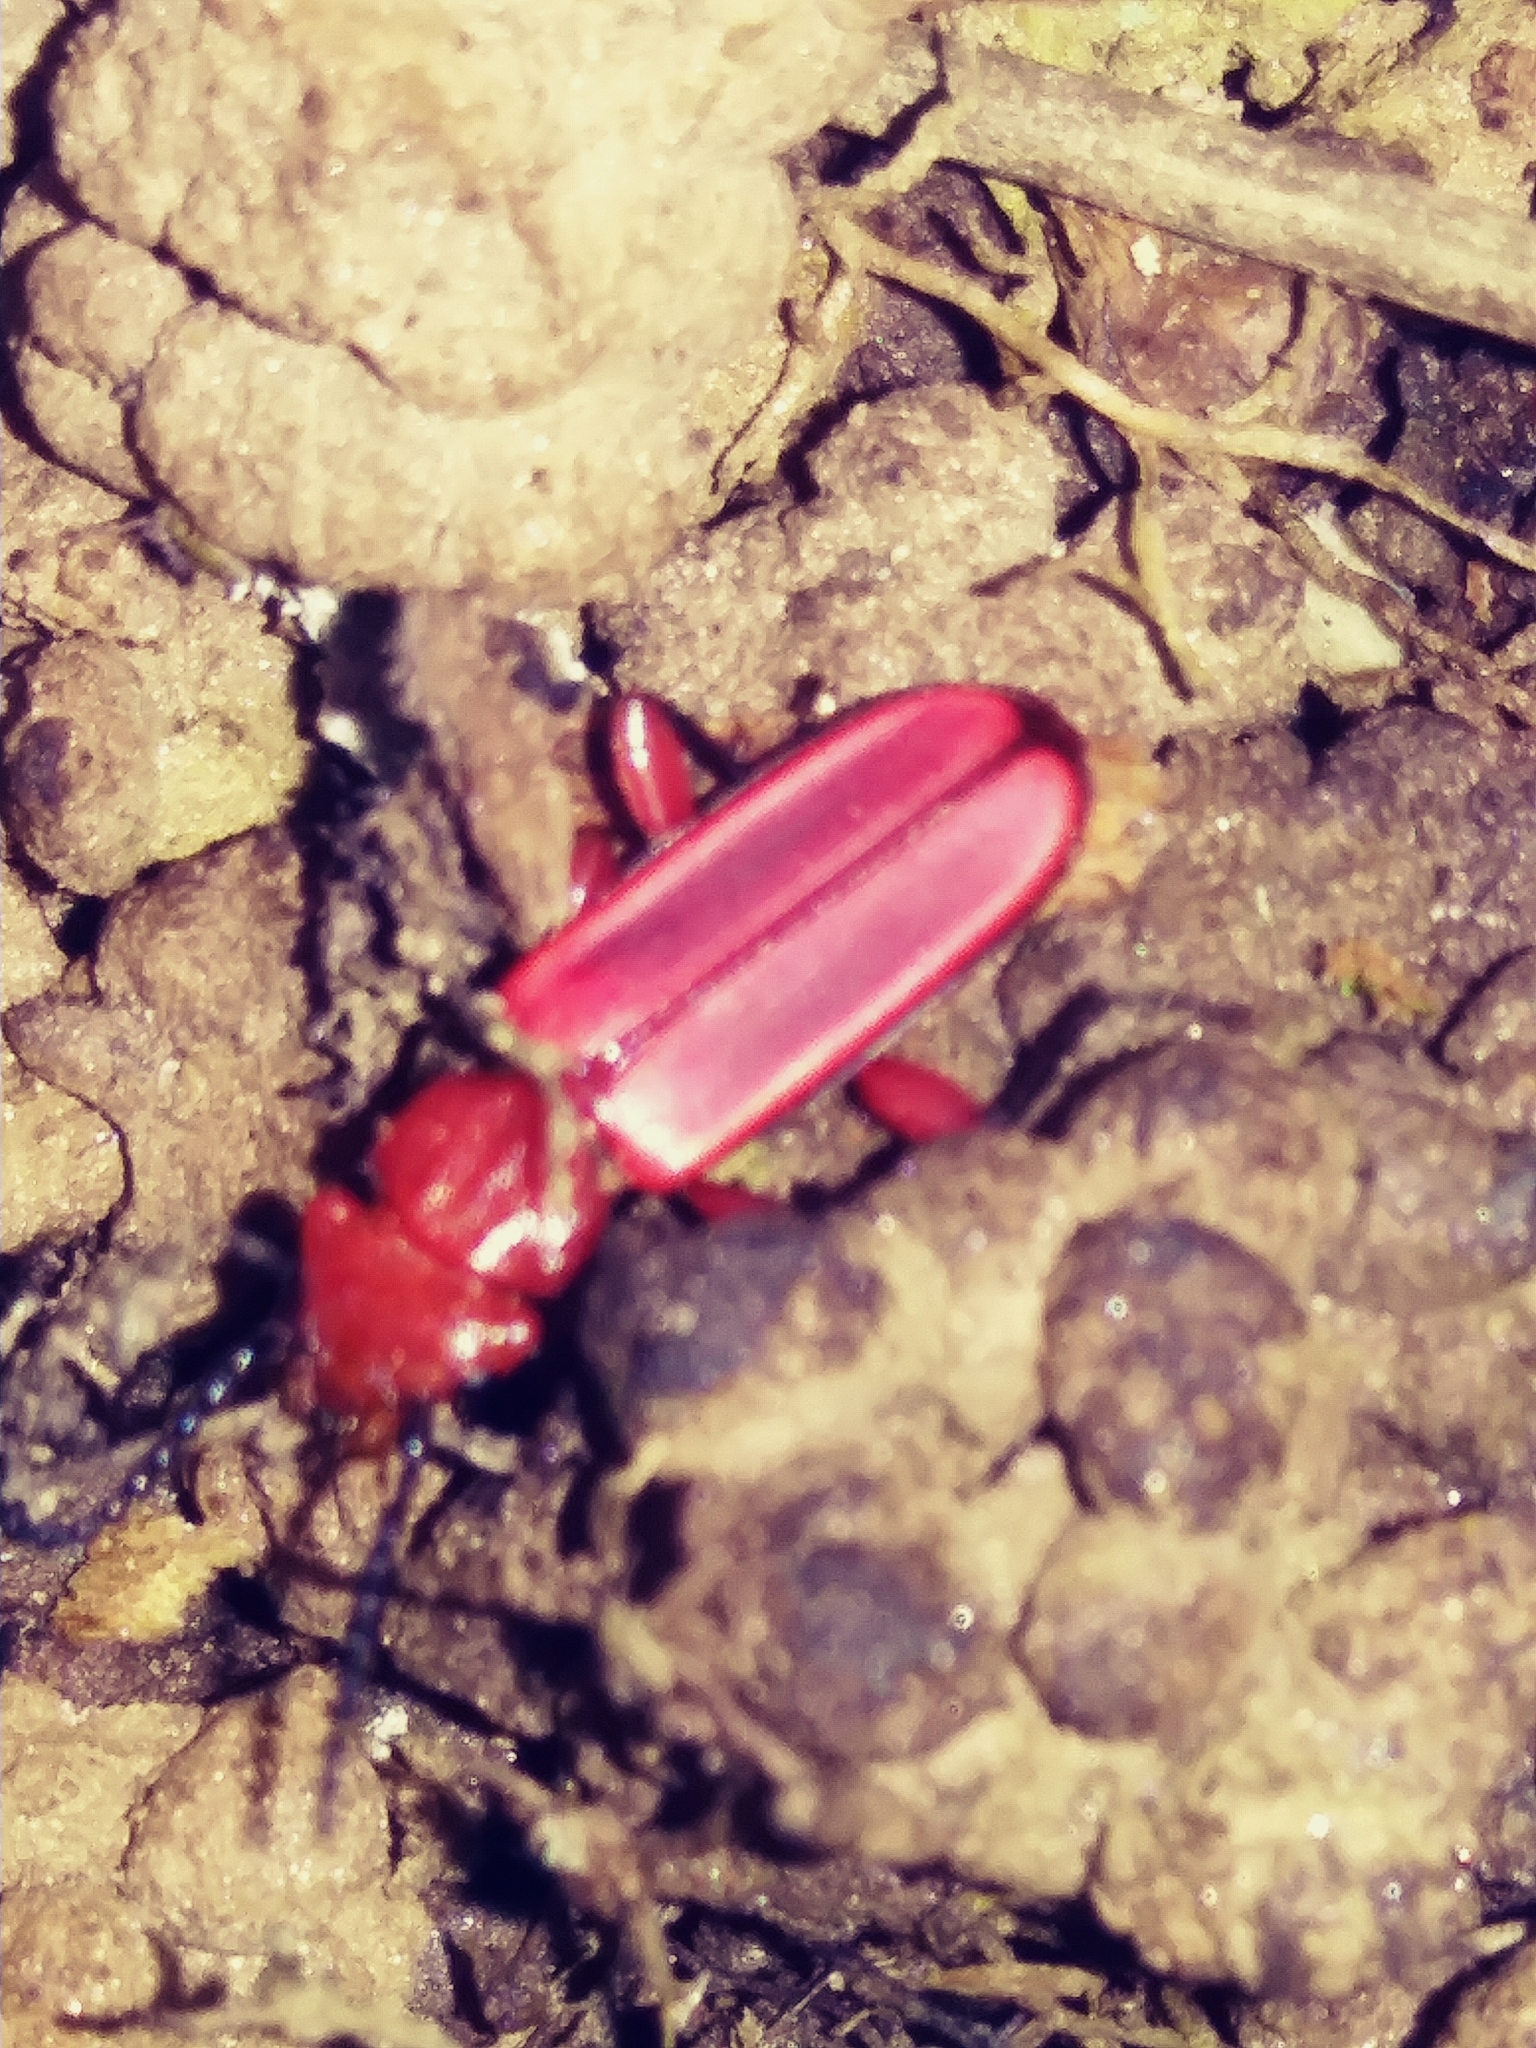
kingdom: Animalia
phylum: Arthropoda
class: Insecta
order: Coleoptera
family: Cucujidae
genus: Cucujus
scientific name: Cucujus clavipes
